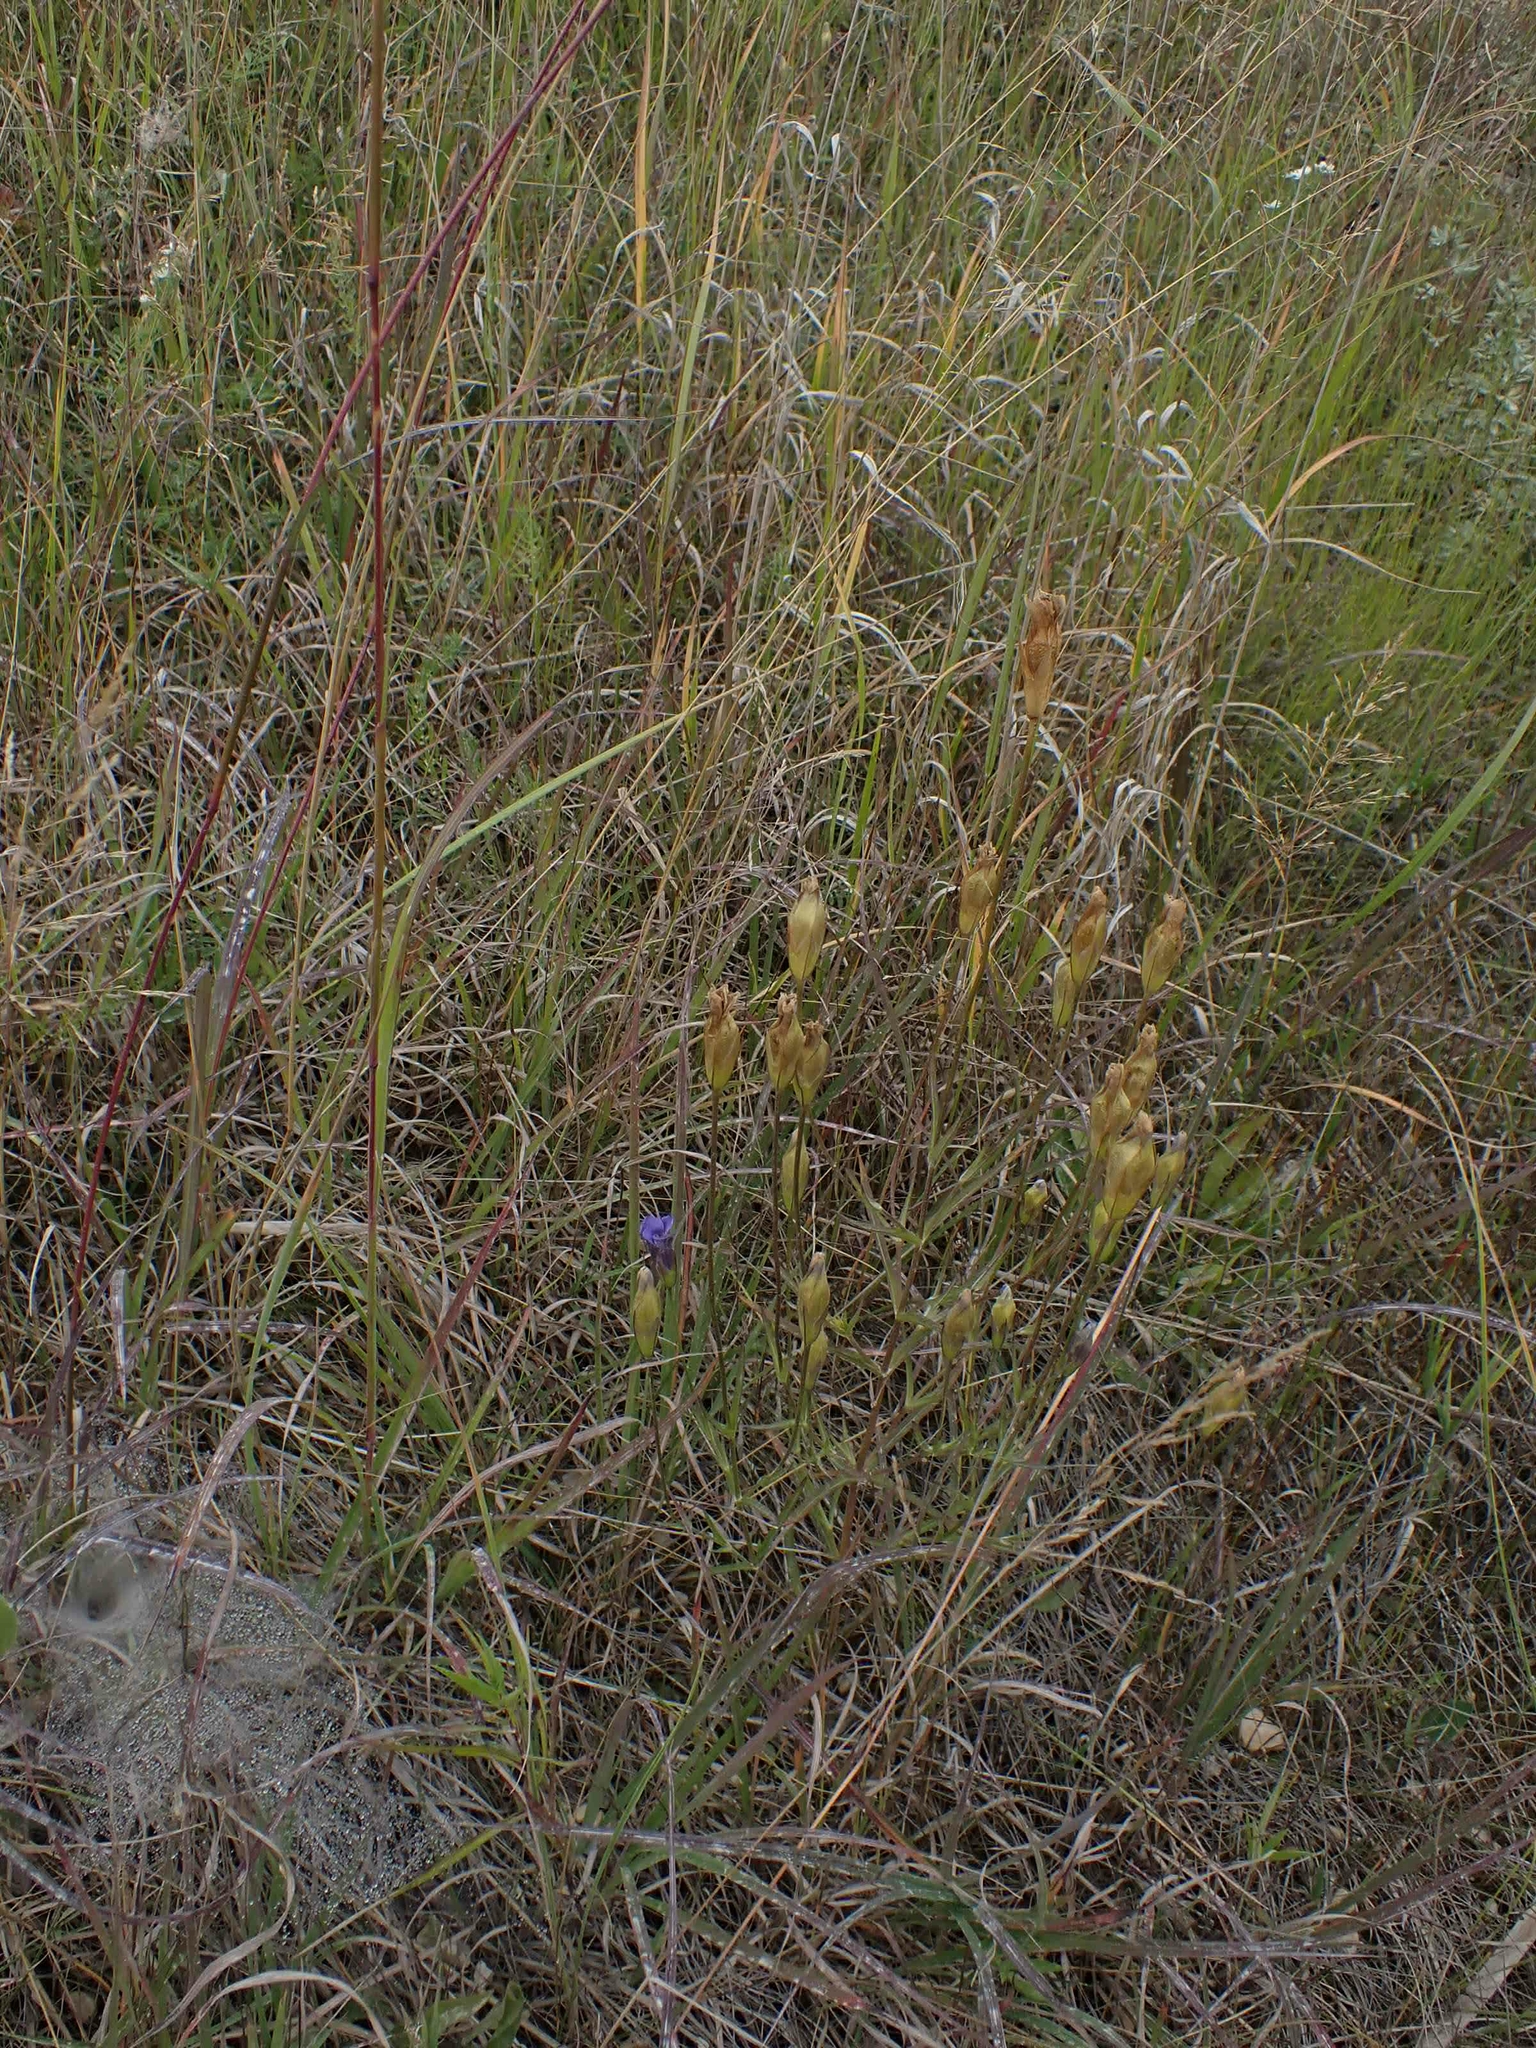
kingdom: Plantae
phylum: Tracheophyta
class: Magnoliopsida
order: Gentianales
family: Gentianaceae
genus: Gentianopsis
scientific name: Gentianopsis virgata
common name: Lesser fringed-gentian
